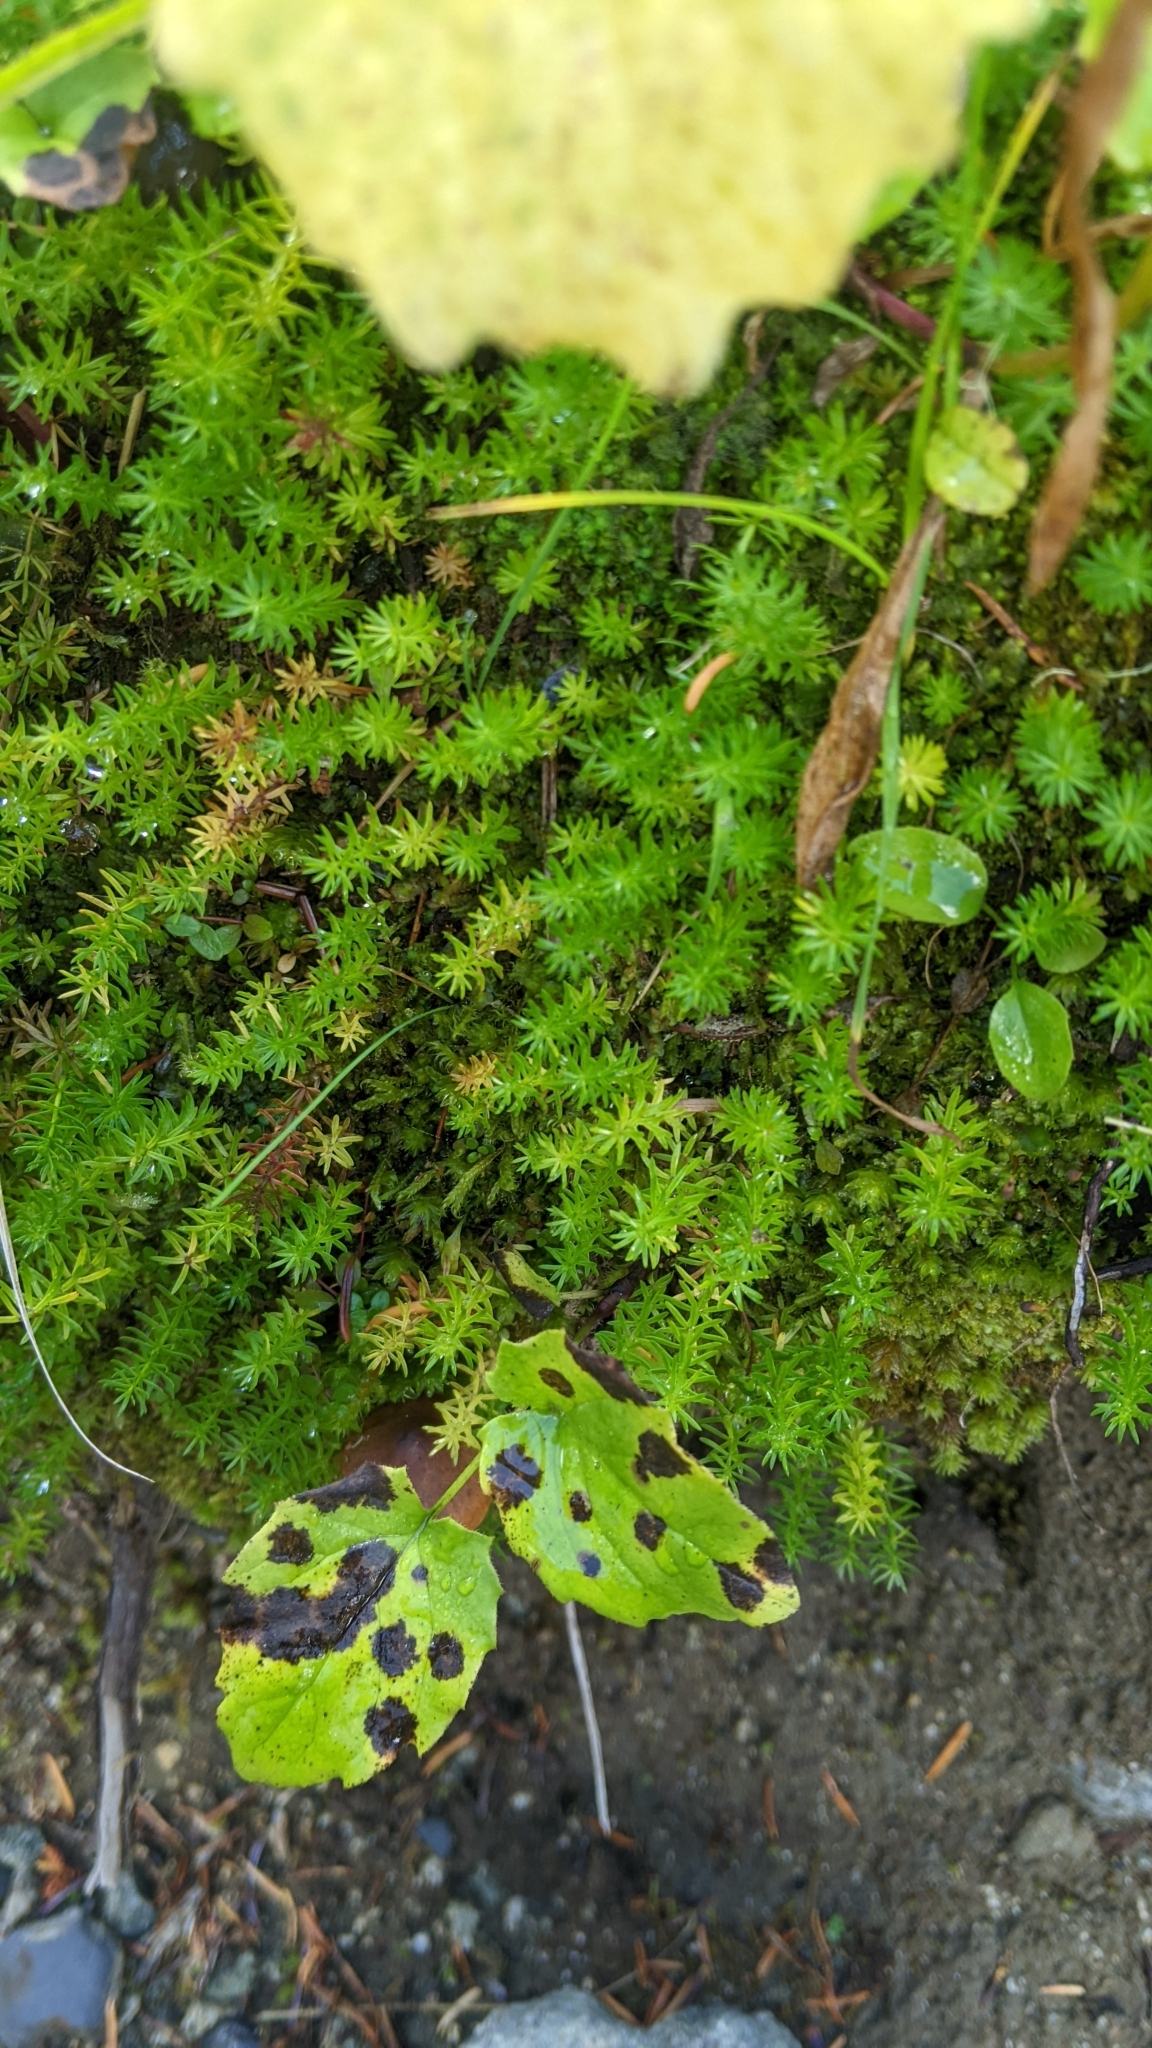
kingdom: Plantae
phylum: Tracheophyta
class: Magnoliopsida
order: Lamiales
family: Plantaginaceae
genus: Hippuris
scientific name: Hippuris montana
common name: Mountain mare's-tail
